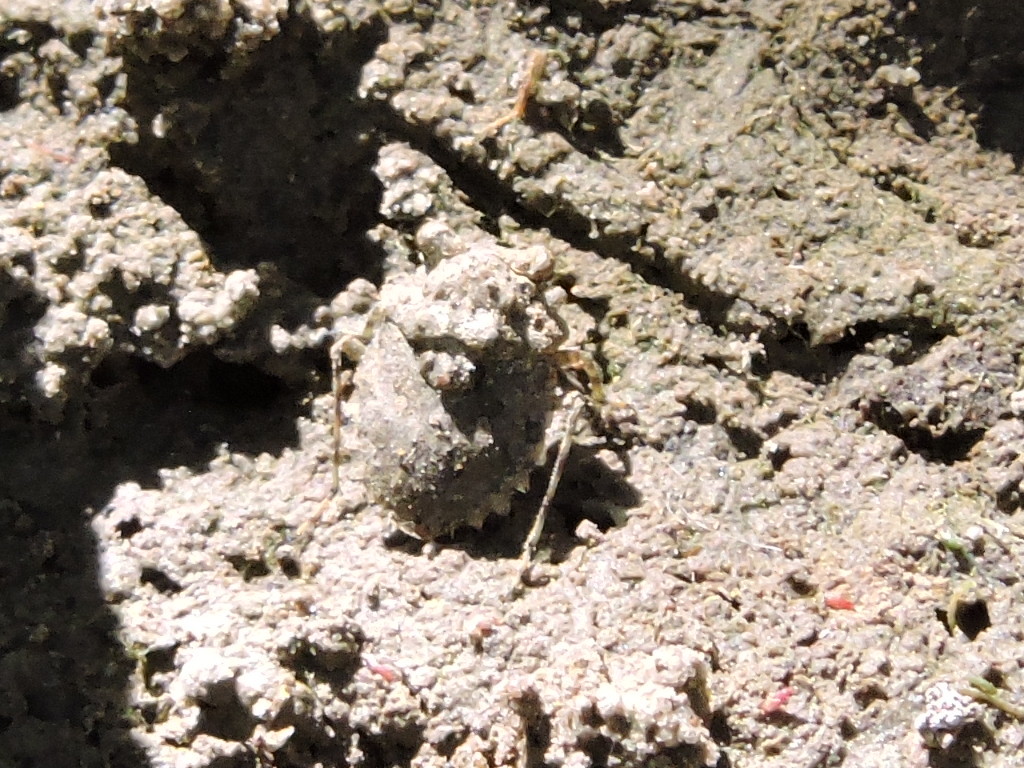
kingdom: Animalia
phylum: Arthropoda
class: Insecta
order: Hemiptera
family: Gelastocoridae
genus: Gelastocoris
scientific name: Gelastocoris oculatus
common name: Toad bug
